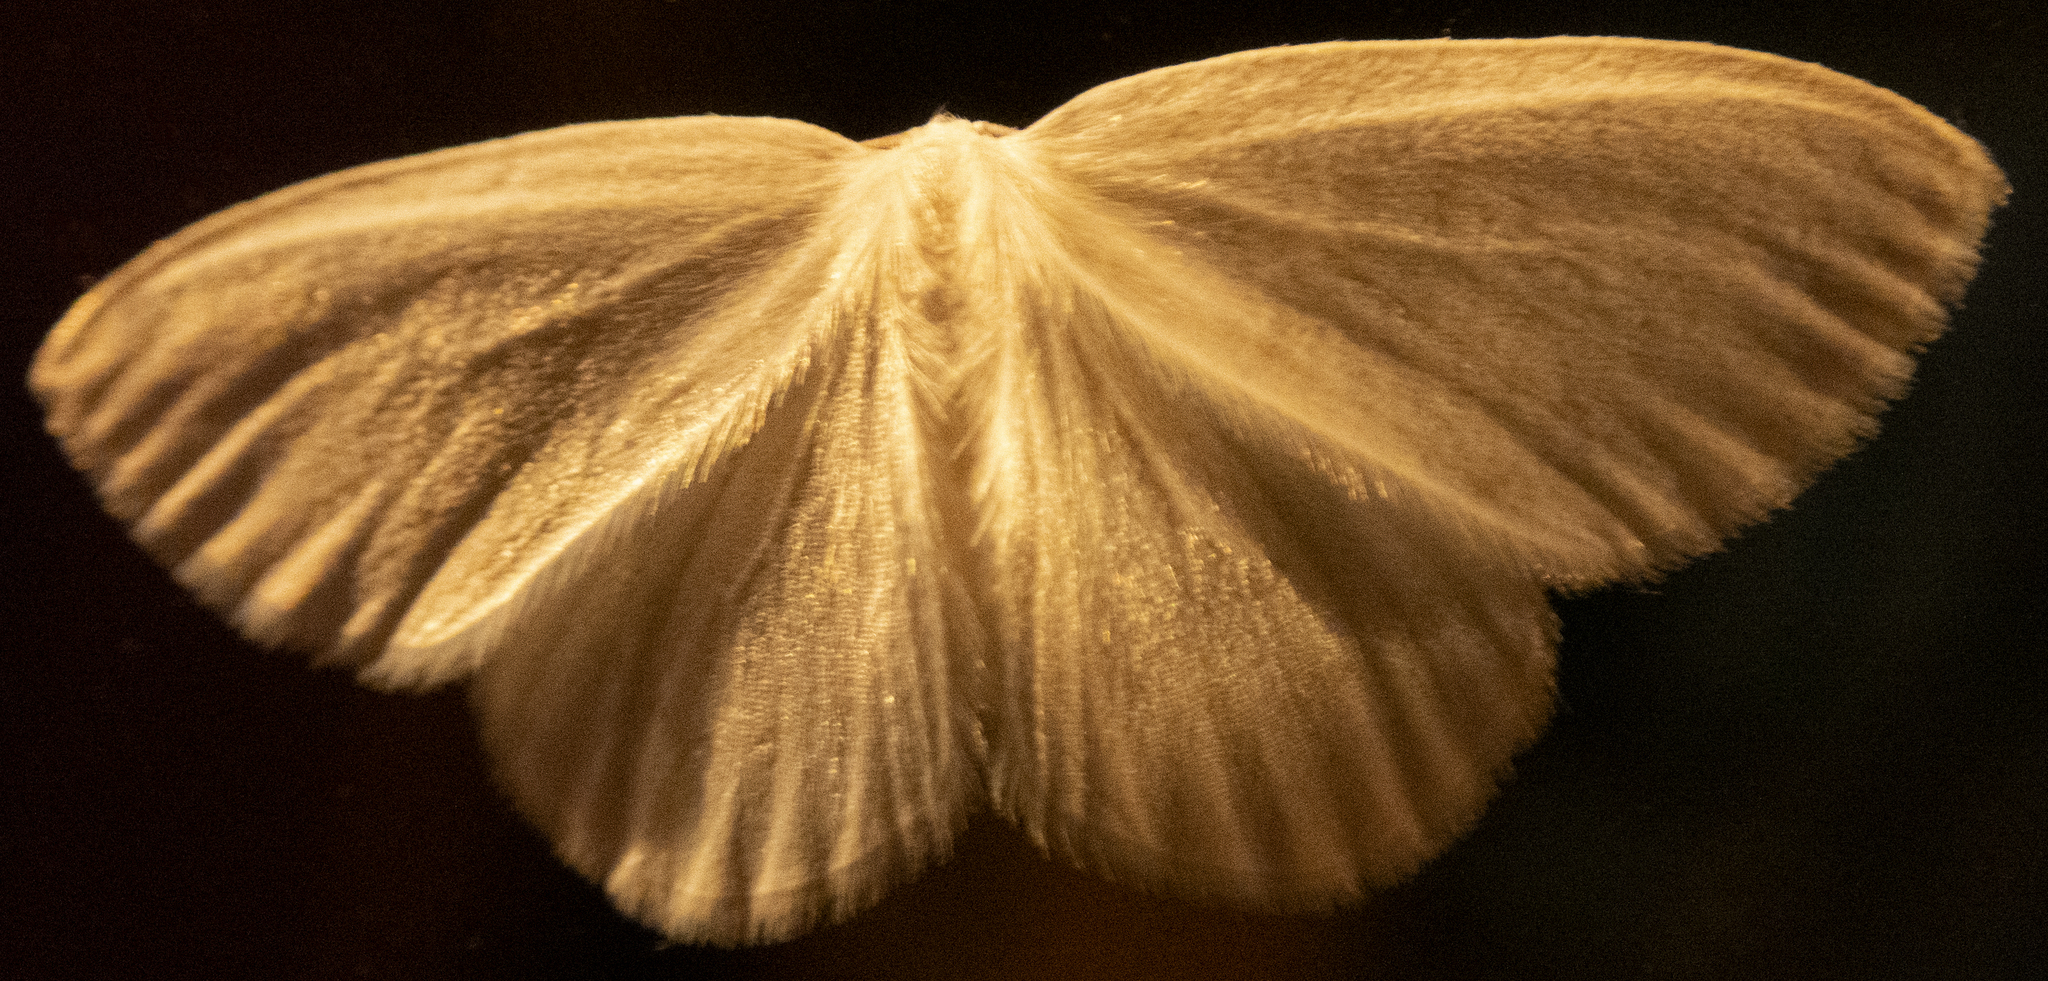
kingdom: Animalia
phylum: Arthropoda
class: Insecta
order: Lepidoptera
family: Drepanidae
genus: Eudeilinia
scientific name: Eudeilinia herminiata
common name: Northern eudeilinea moth
